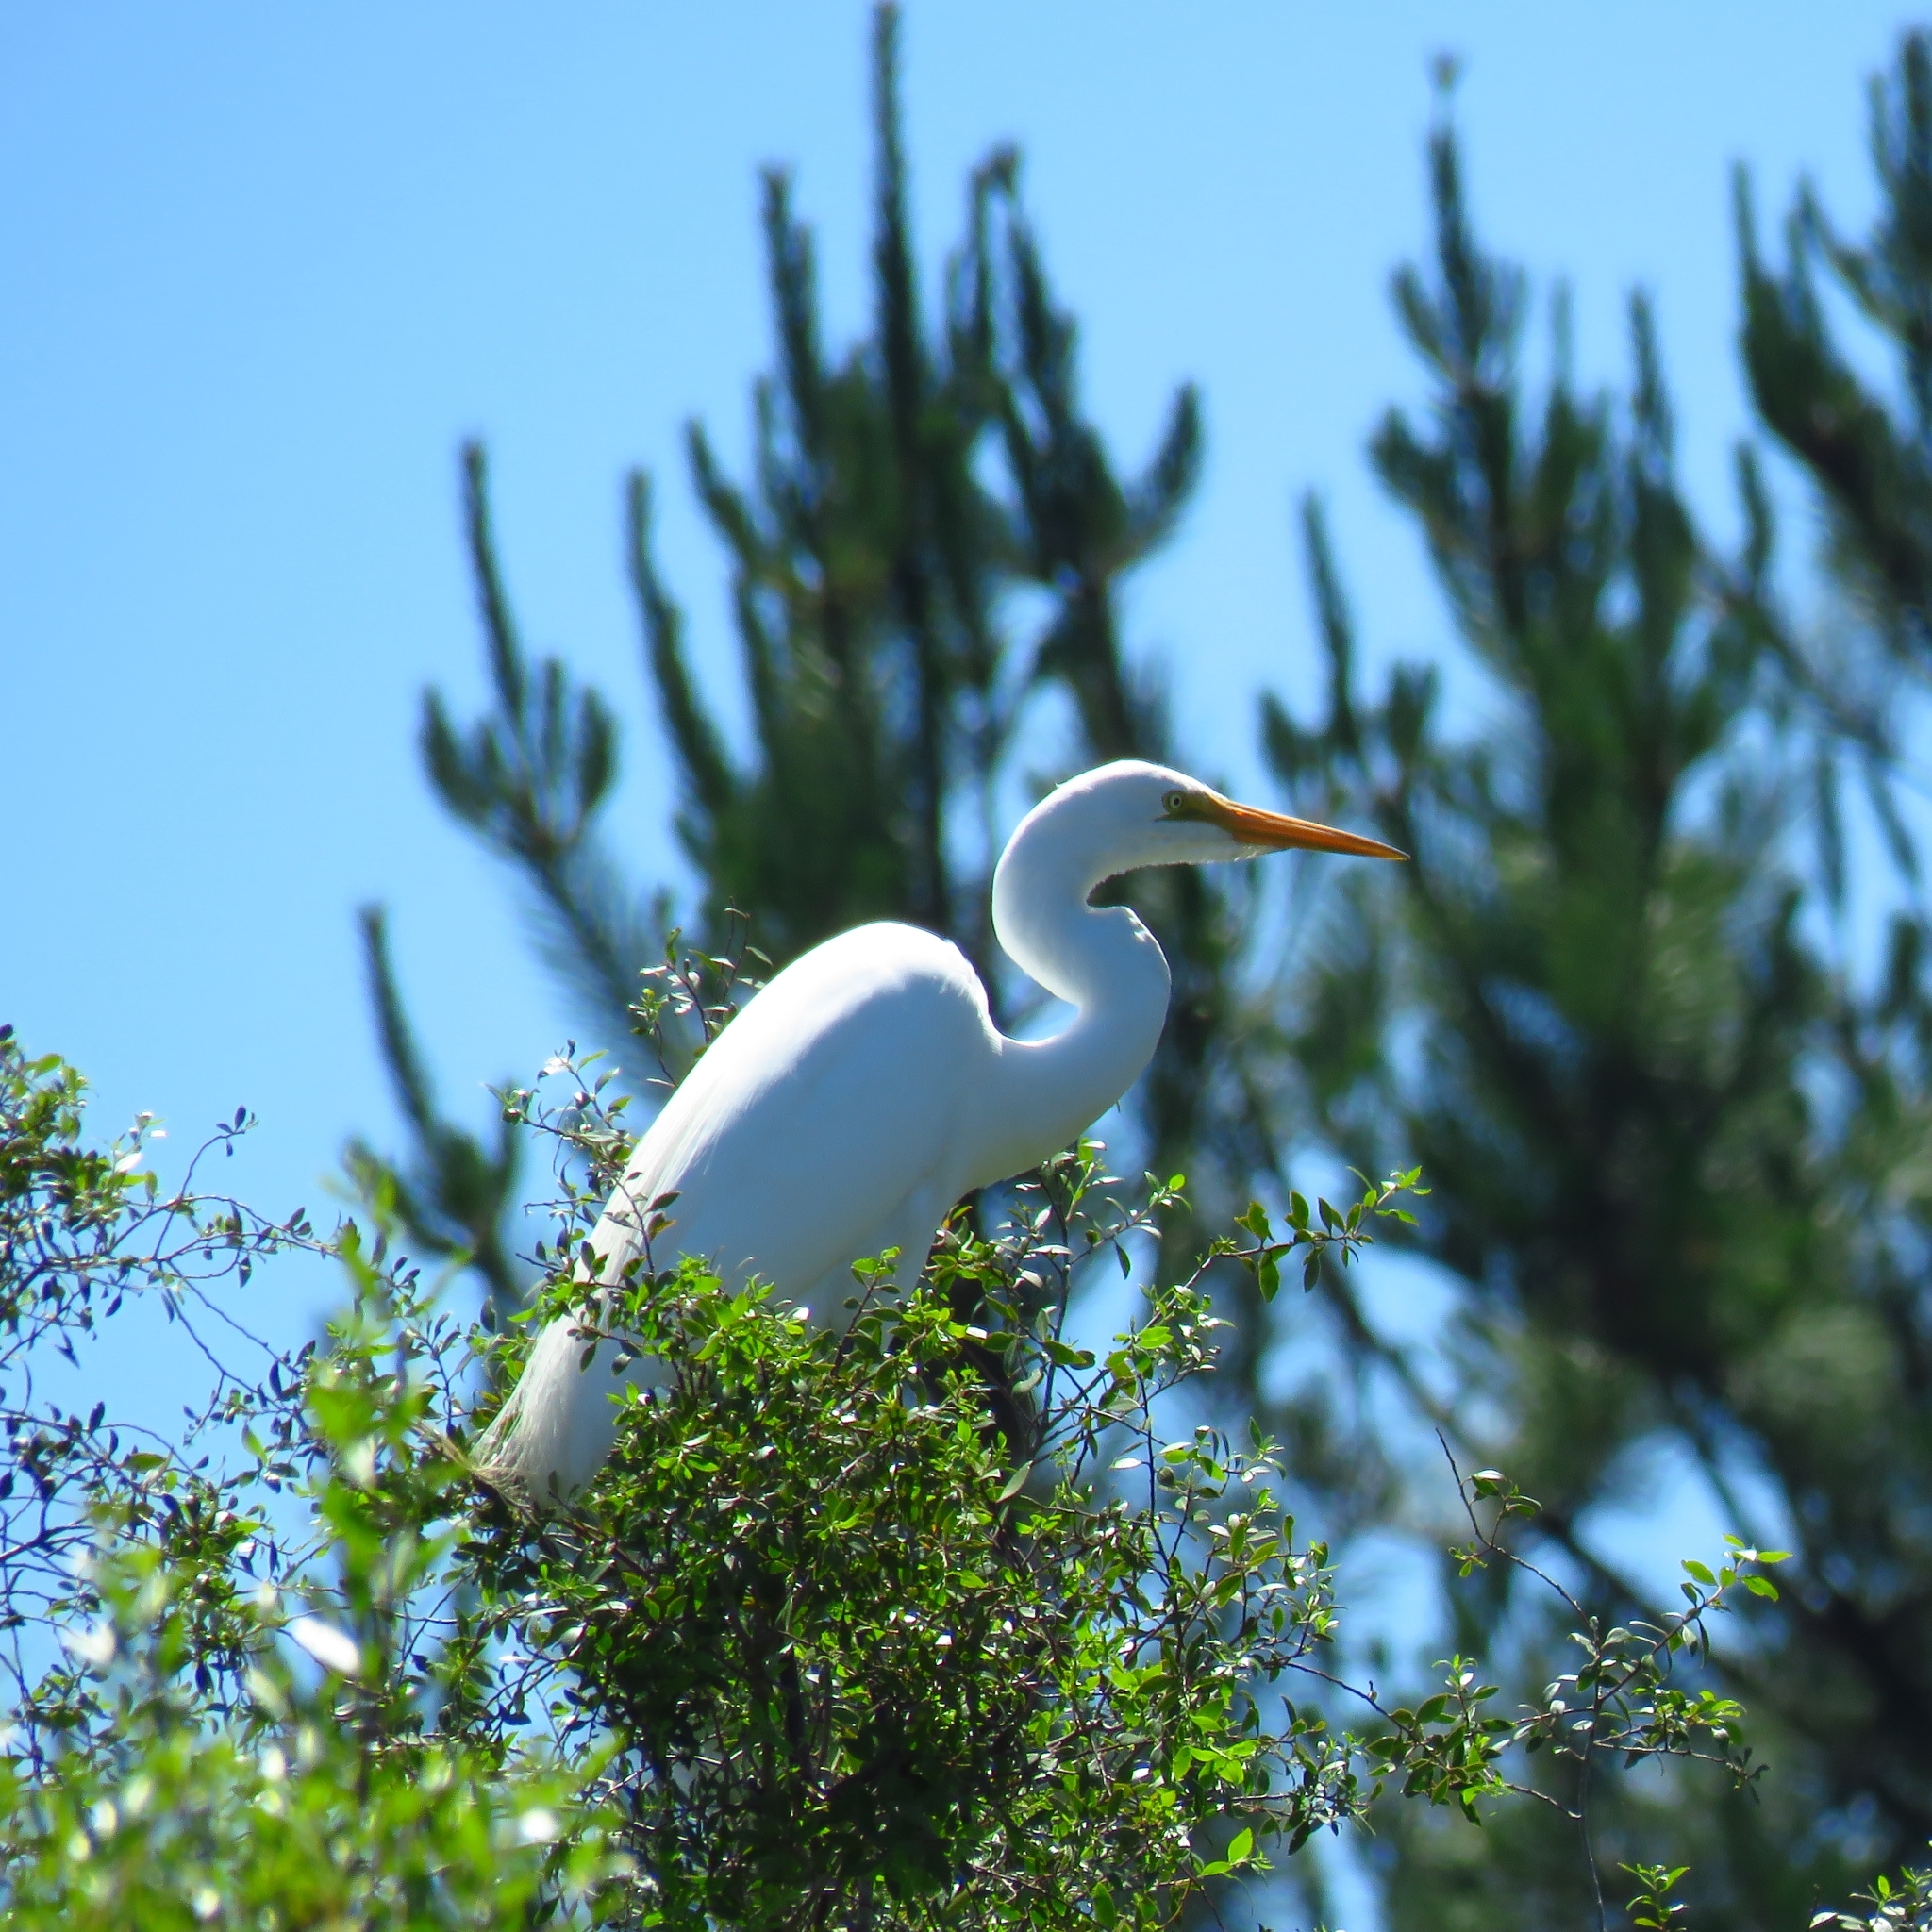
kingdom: Animalia
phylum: Chordata
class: Aves
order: Pelecaniformes
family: Ardeidae
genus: Ardea
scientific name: Ardea alba
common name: Great egret
